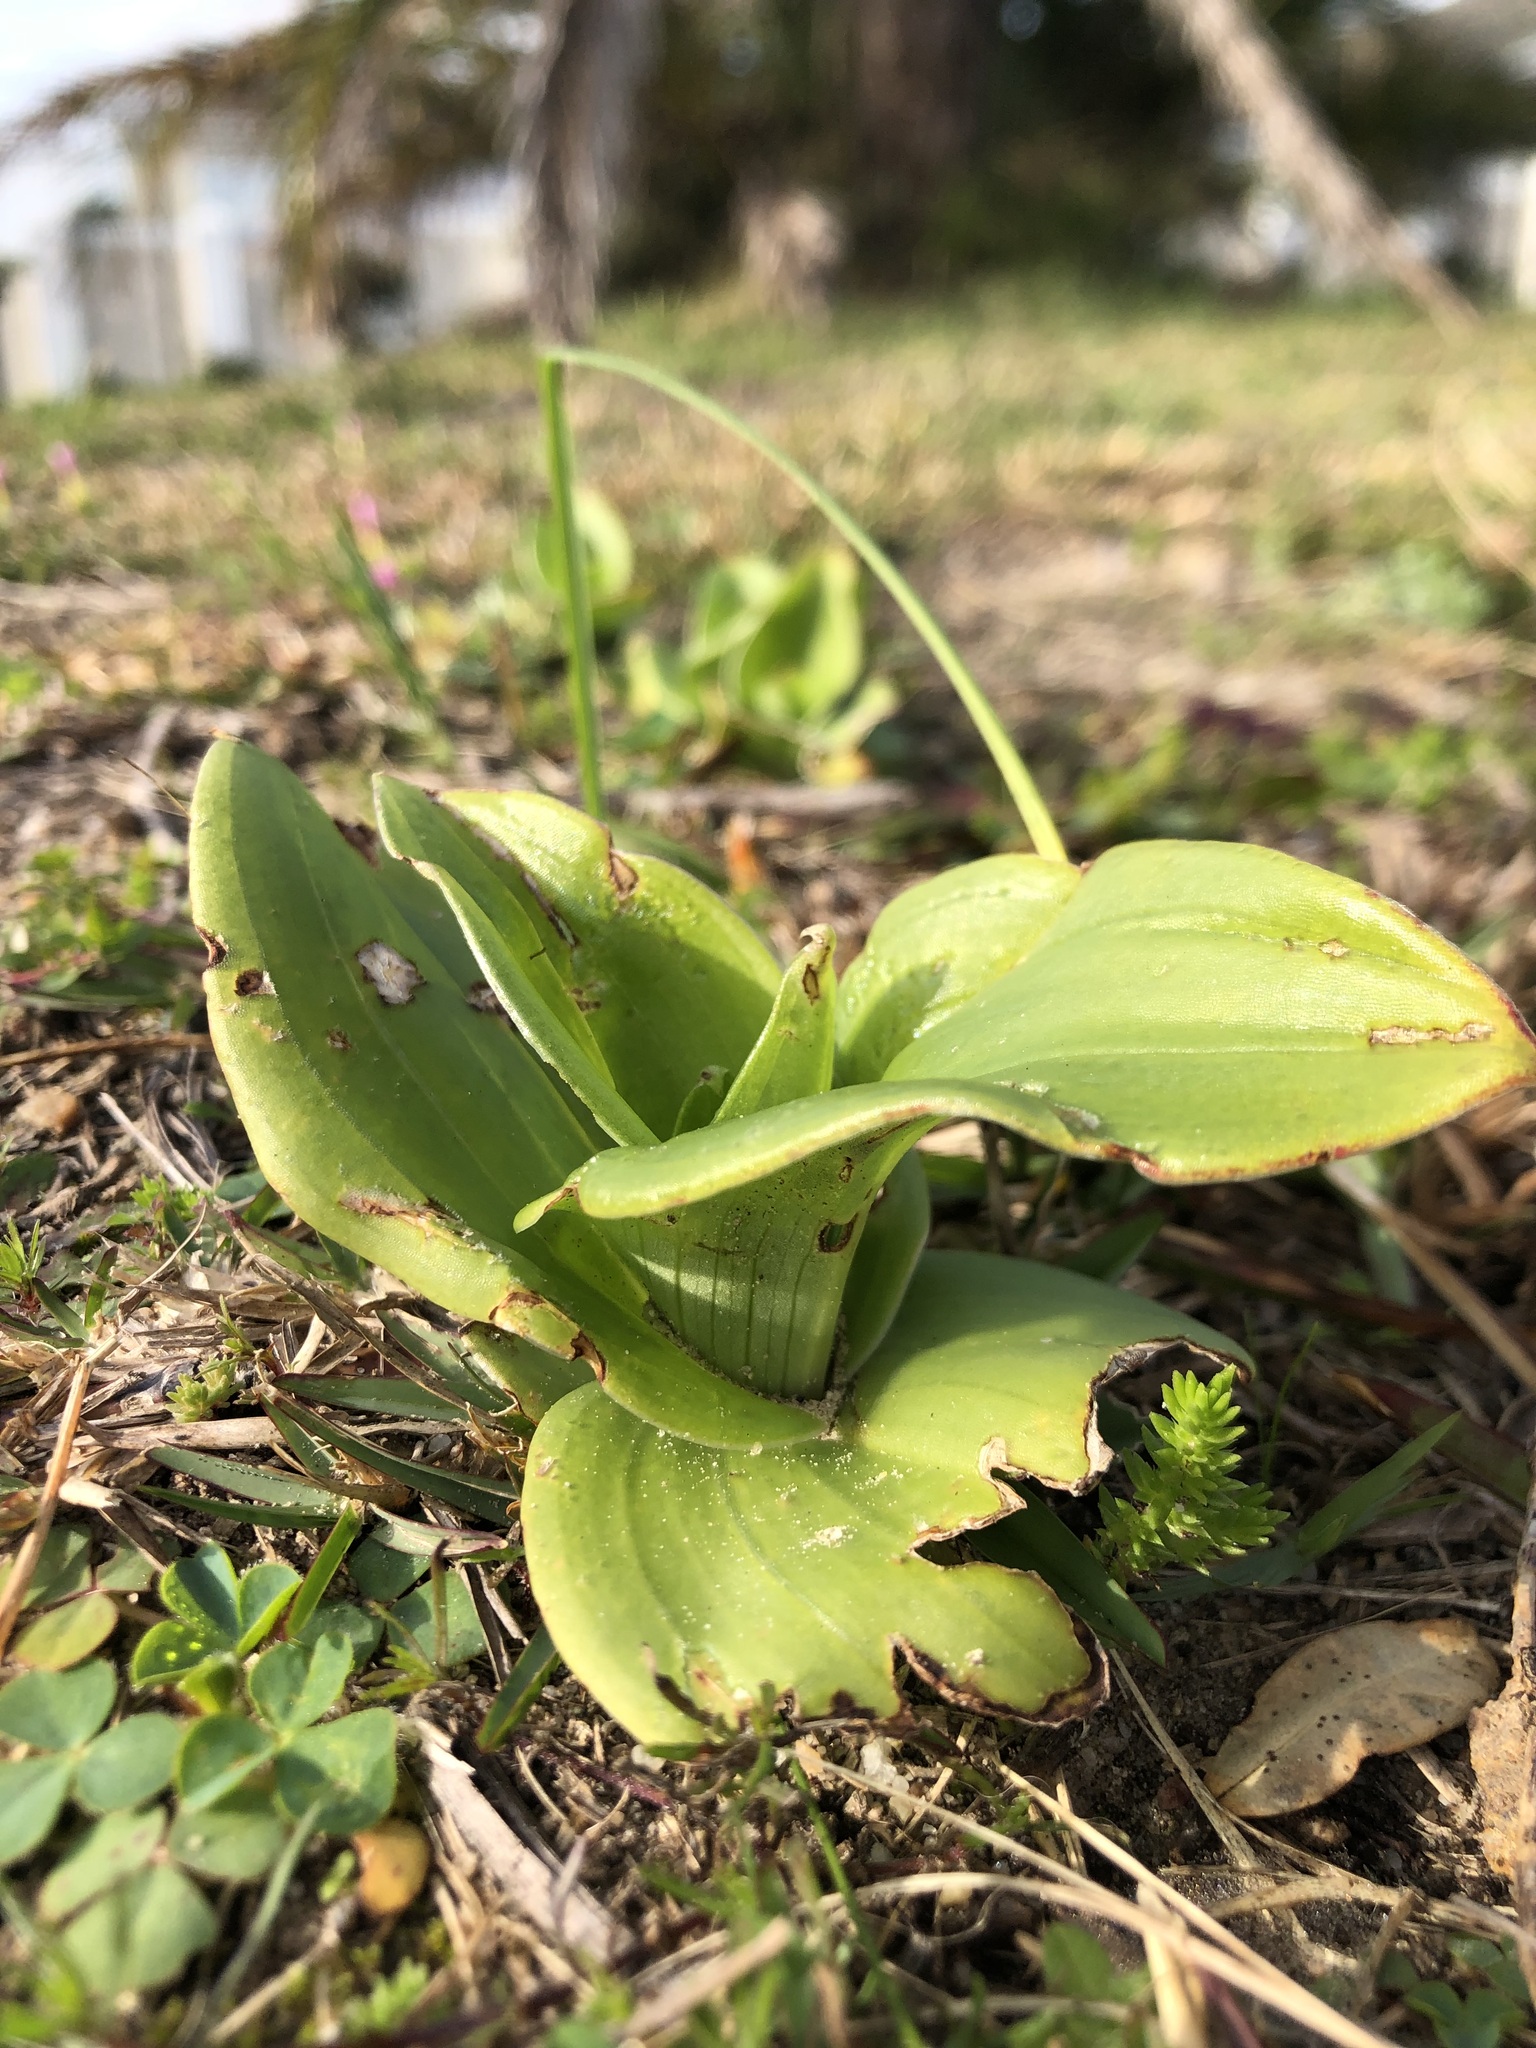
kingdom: Plantae
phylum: Tracheophyta
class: Liliopsida
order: Asparagales
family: Orchidaceae
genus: Satyrium
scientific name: Satyrium odorum
